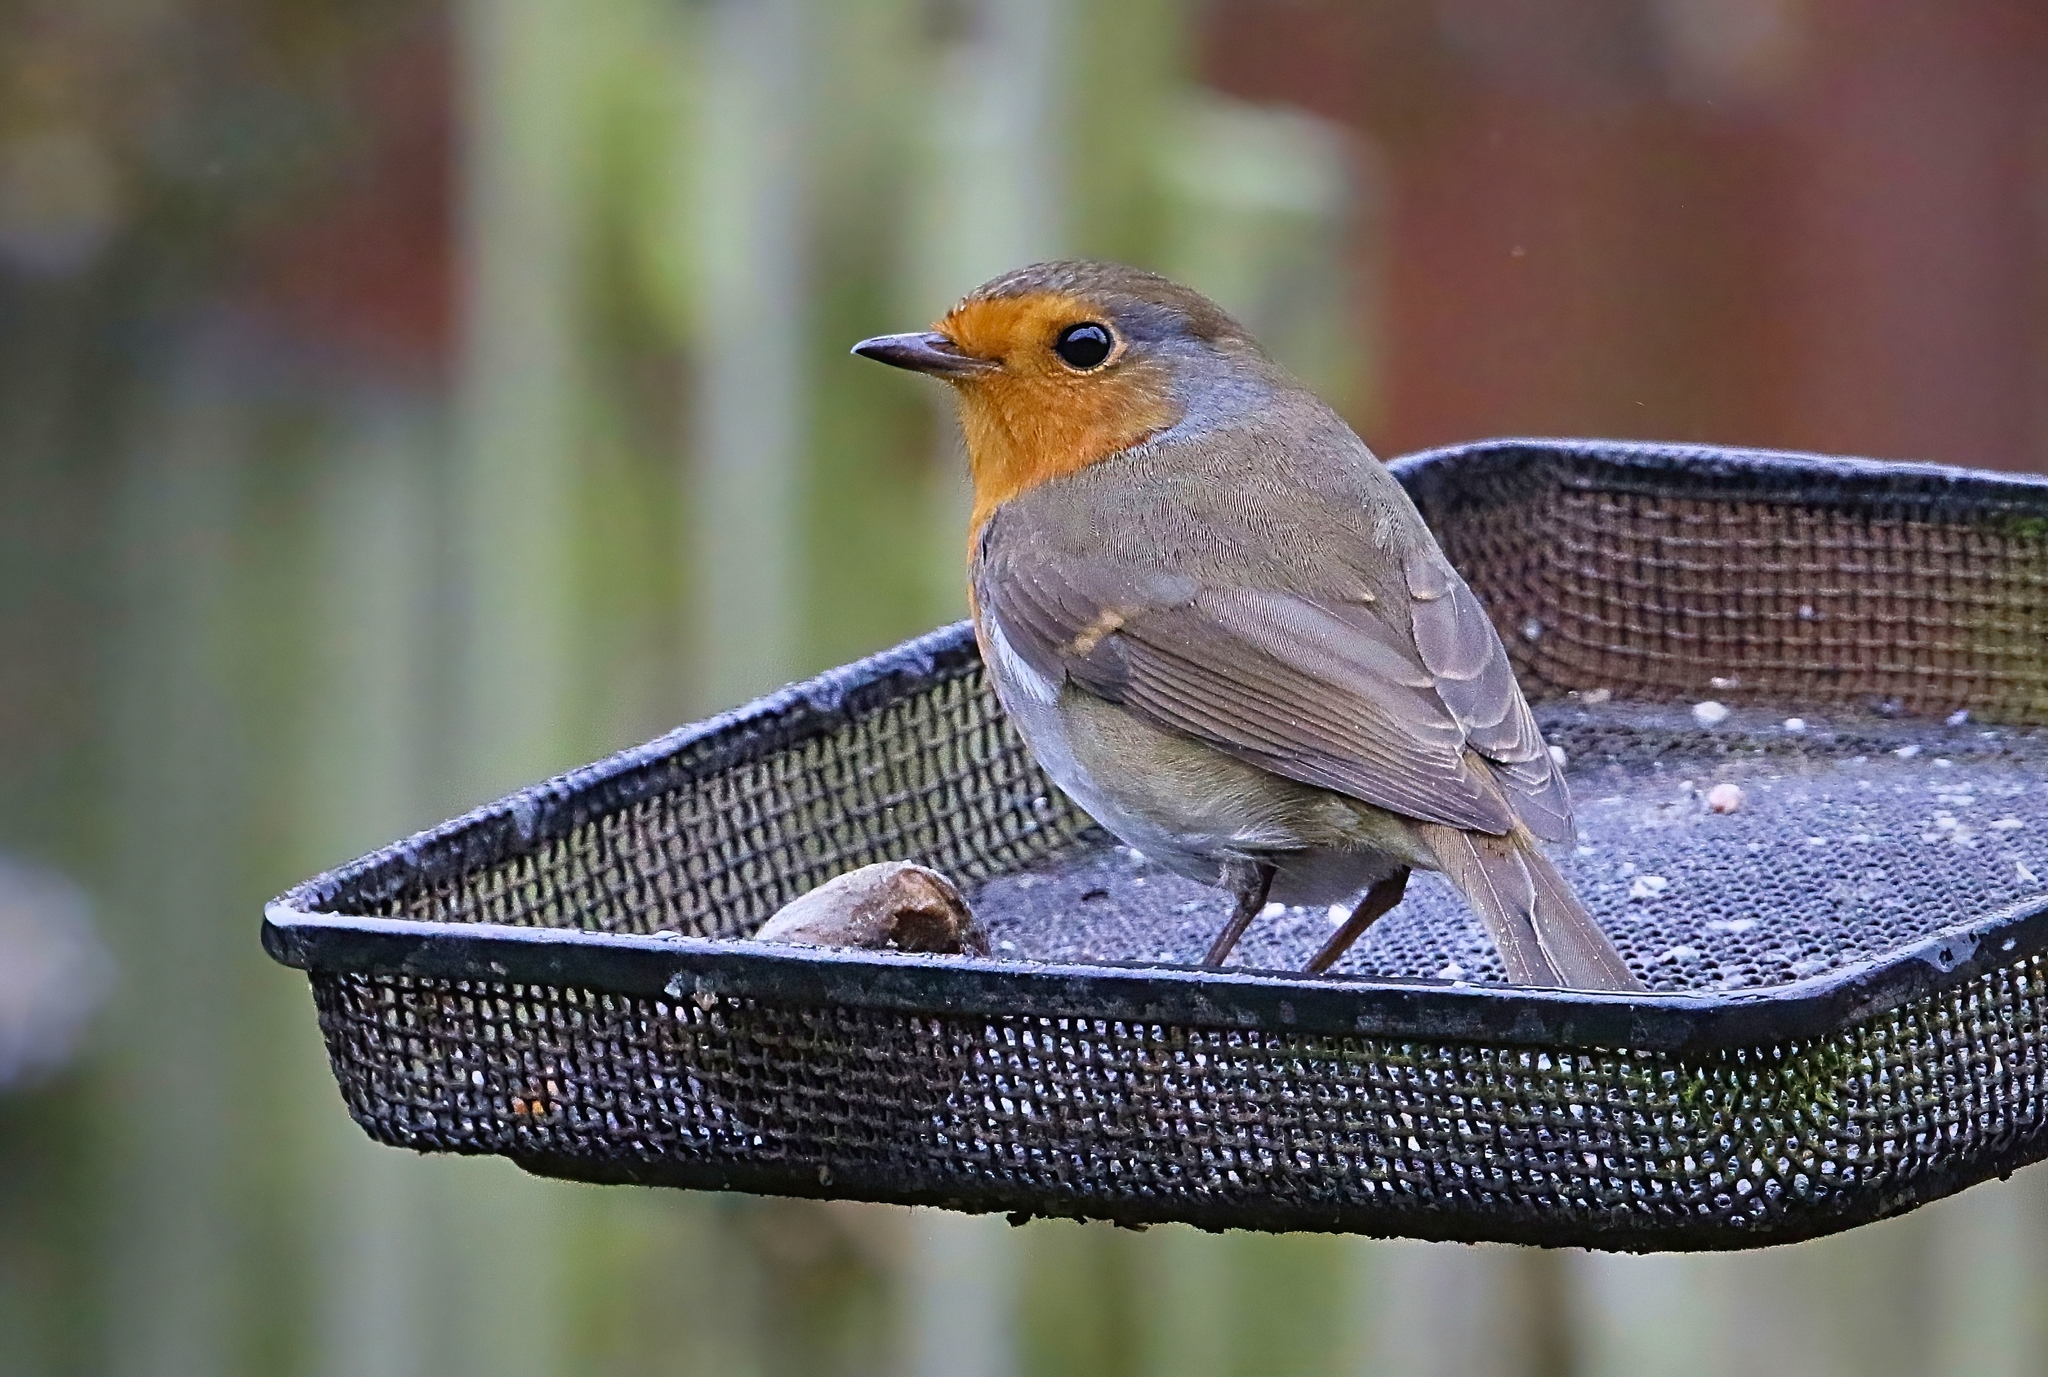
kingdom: Animalia
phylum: Chordata
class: Aves
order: Passeriformes
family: Muscicapidae
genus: Erithacus
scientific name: Erithacus rubecula
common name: European robin
